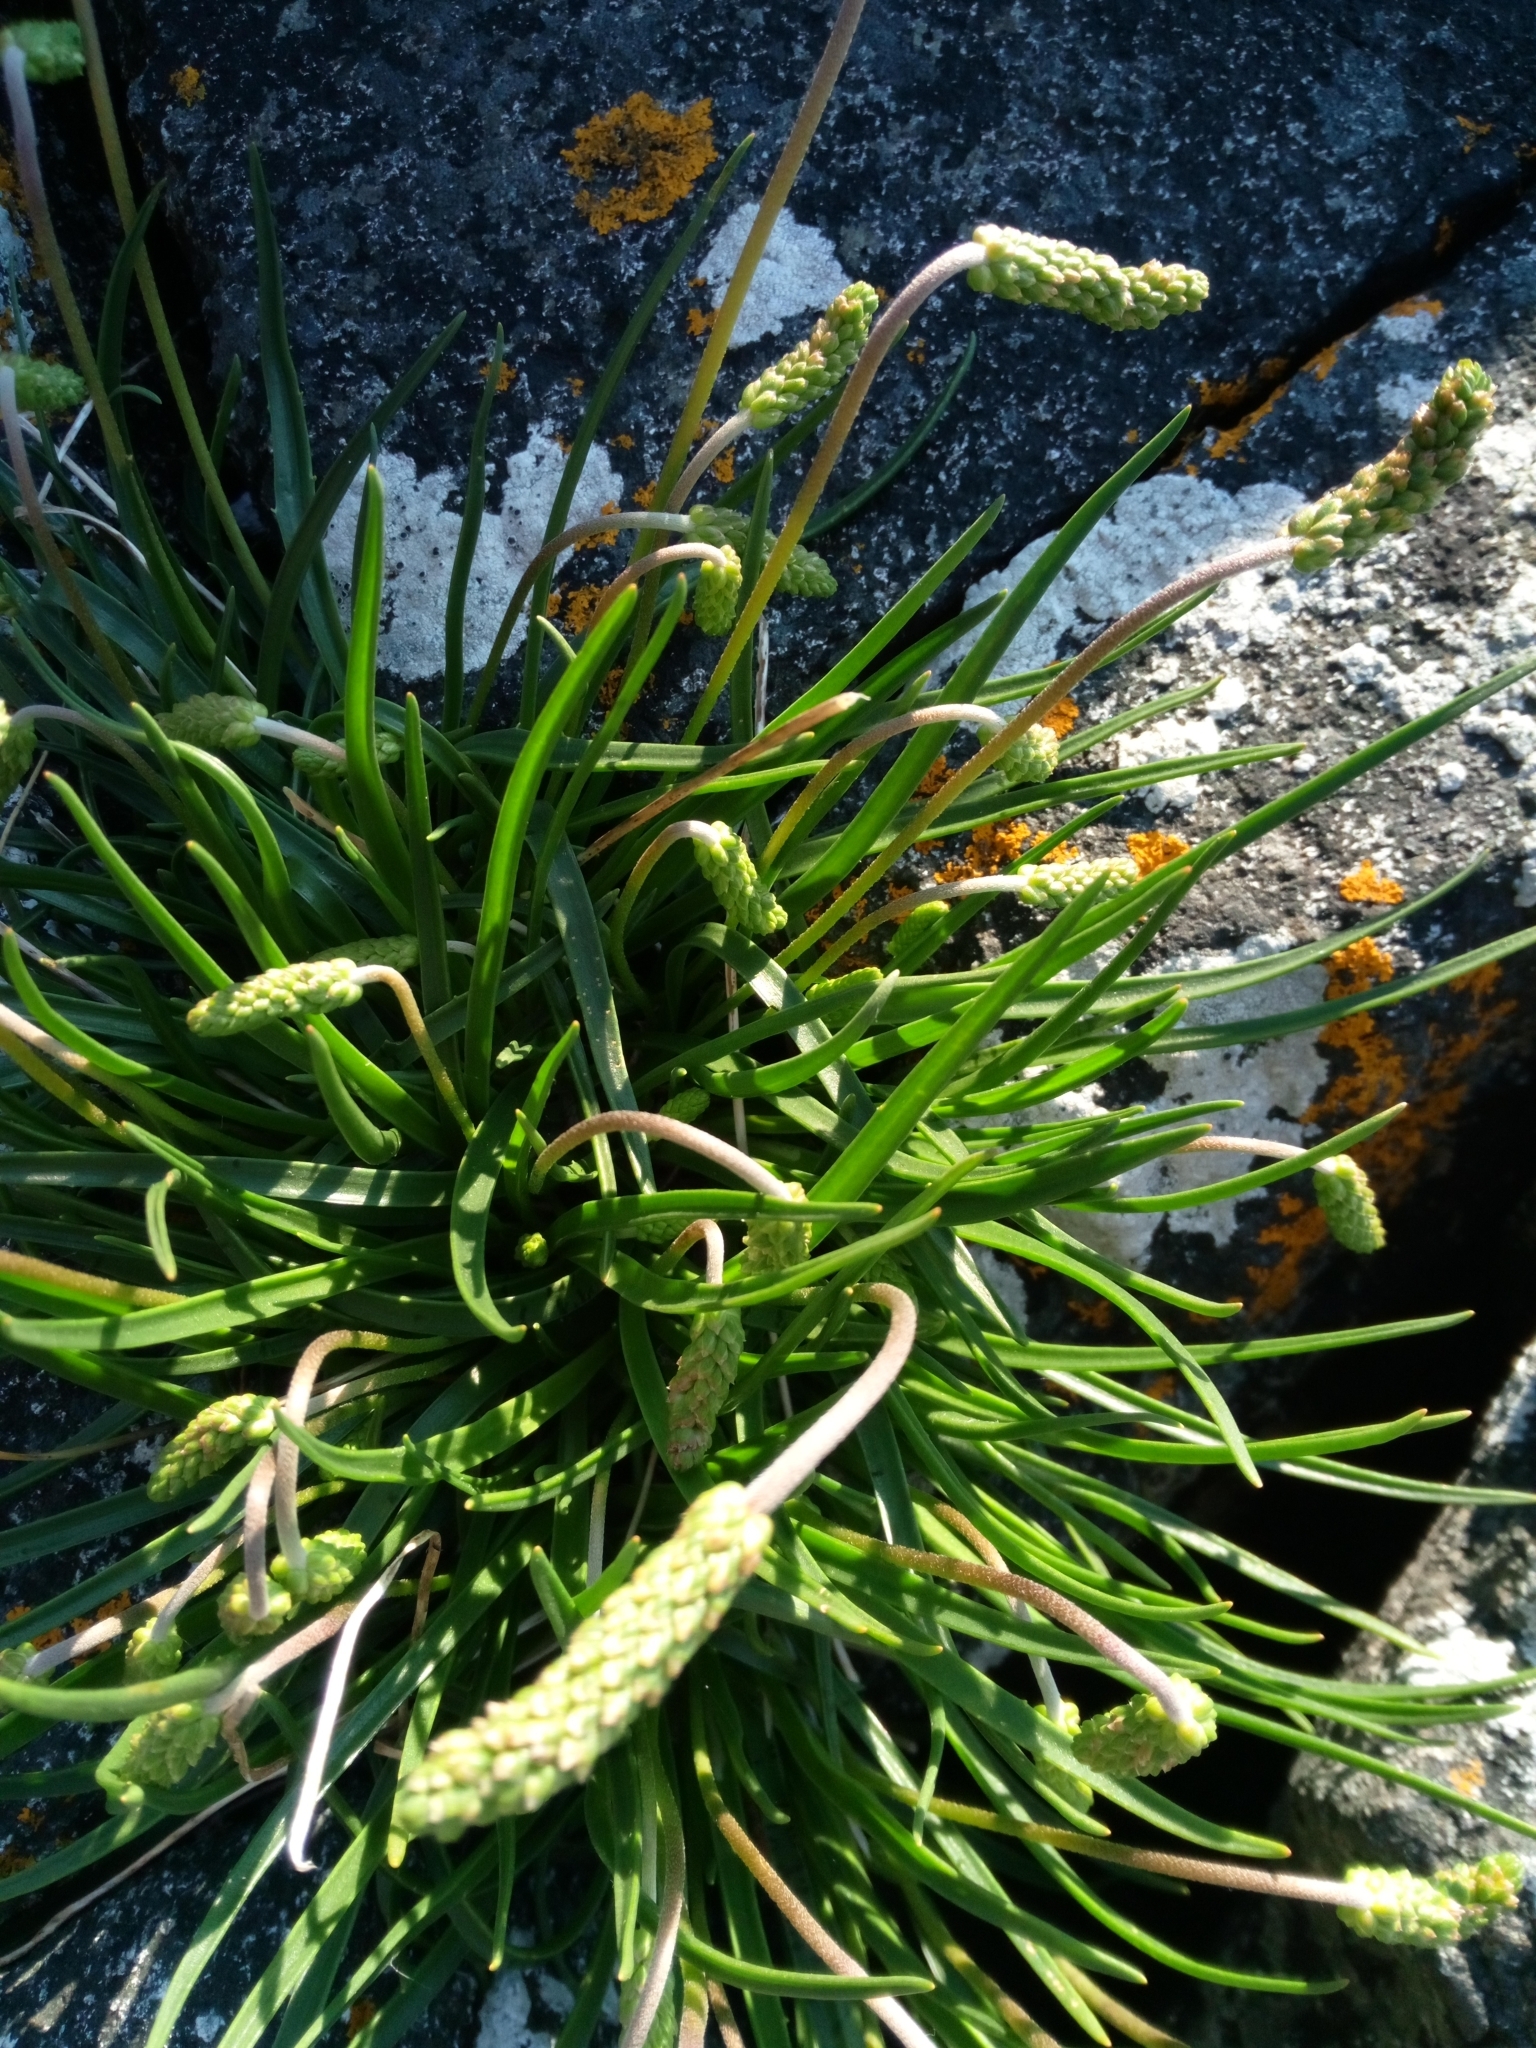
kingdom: Plantae
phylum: Tracheophyta
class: Magnoliopsida
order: Lamiales
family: Plantaginaceae
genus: Plantago
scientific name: Plantago maritima
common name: Sea plantain
